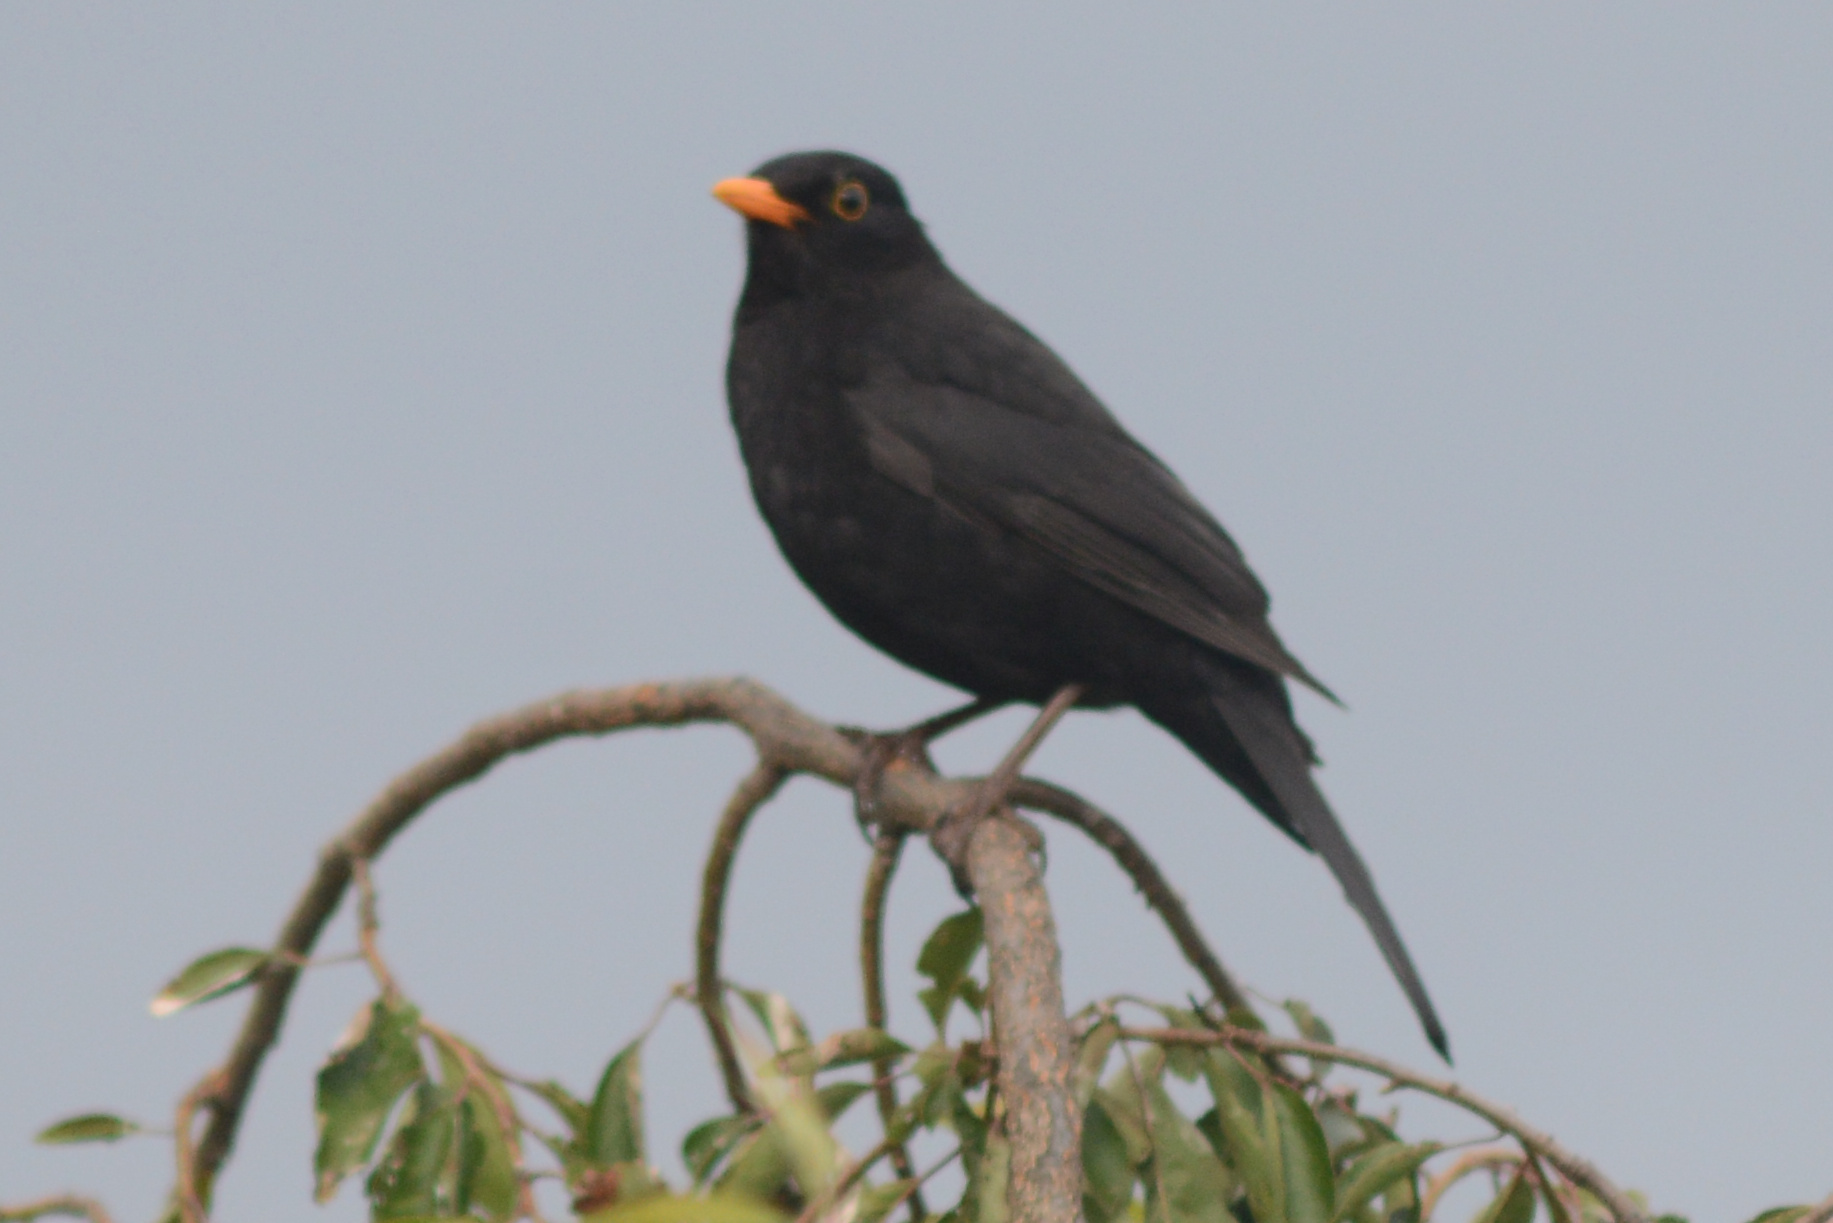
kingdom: Animalia
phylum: Chordata
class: Aves
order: Passeriformes
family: Turdidae
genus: Turdus
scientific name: Turdus merula
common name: Common blackbird
